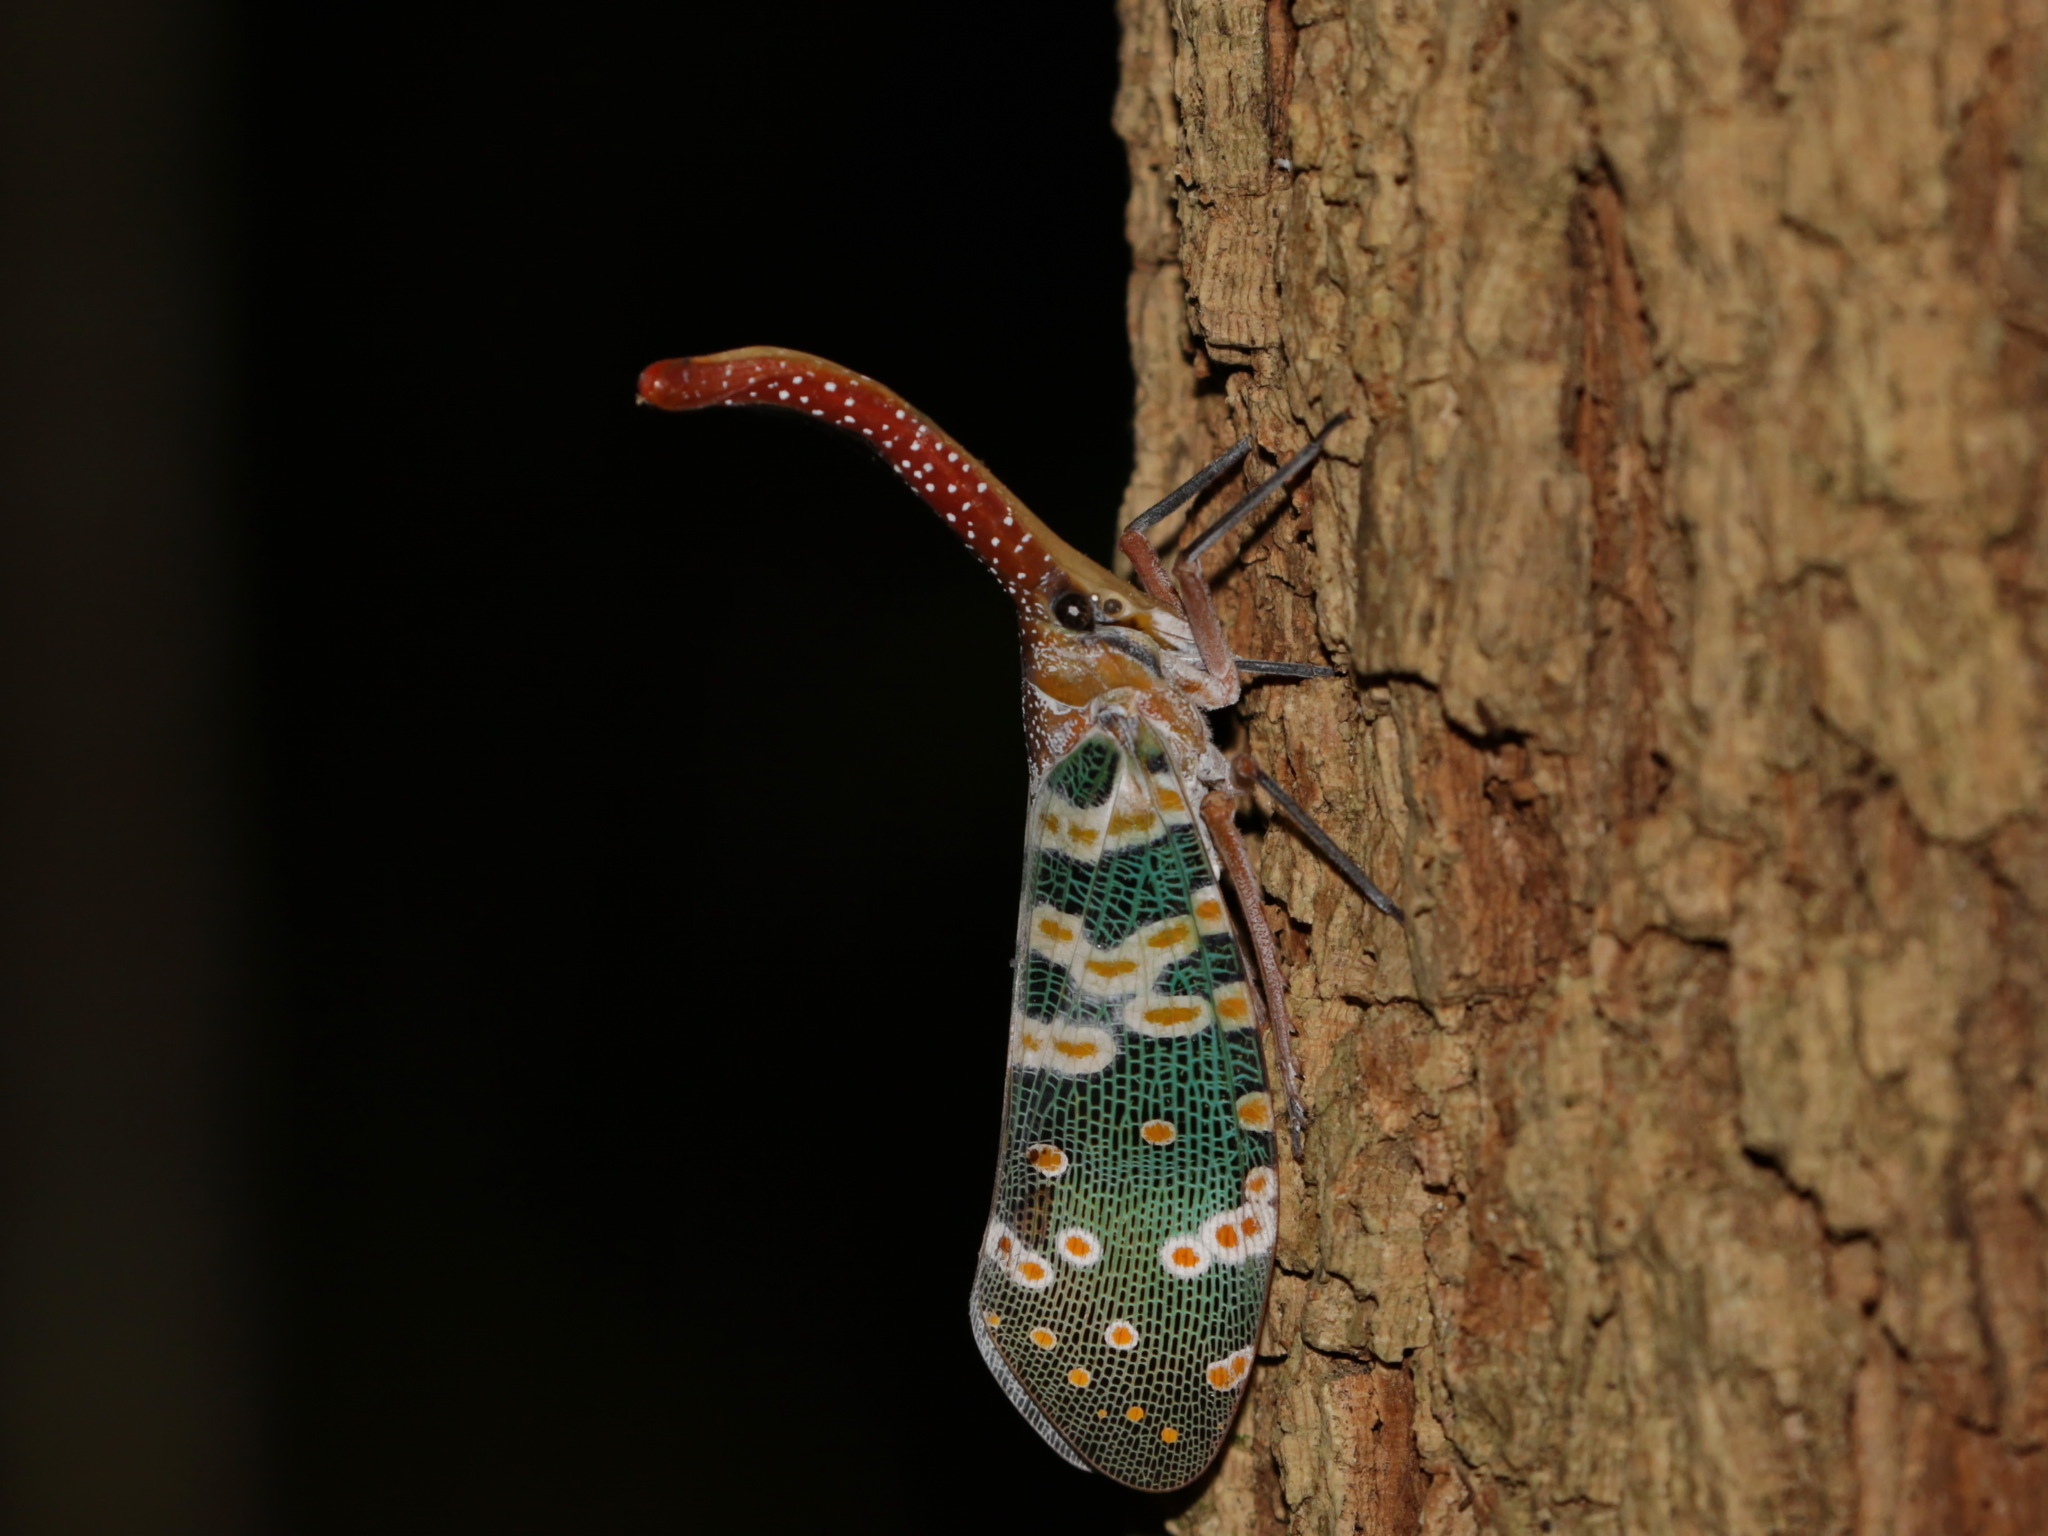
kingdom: Animalia
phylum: Arthropoda
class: Insecta
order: Hemiptera
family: Fulgoridae
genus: Pyrops
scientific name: Pyrops candelaria
